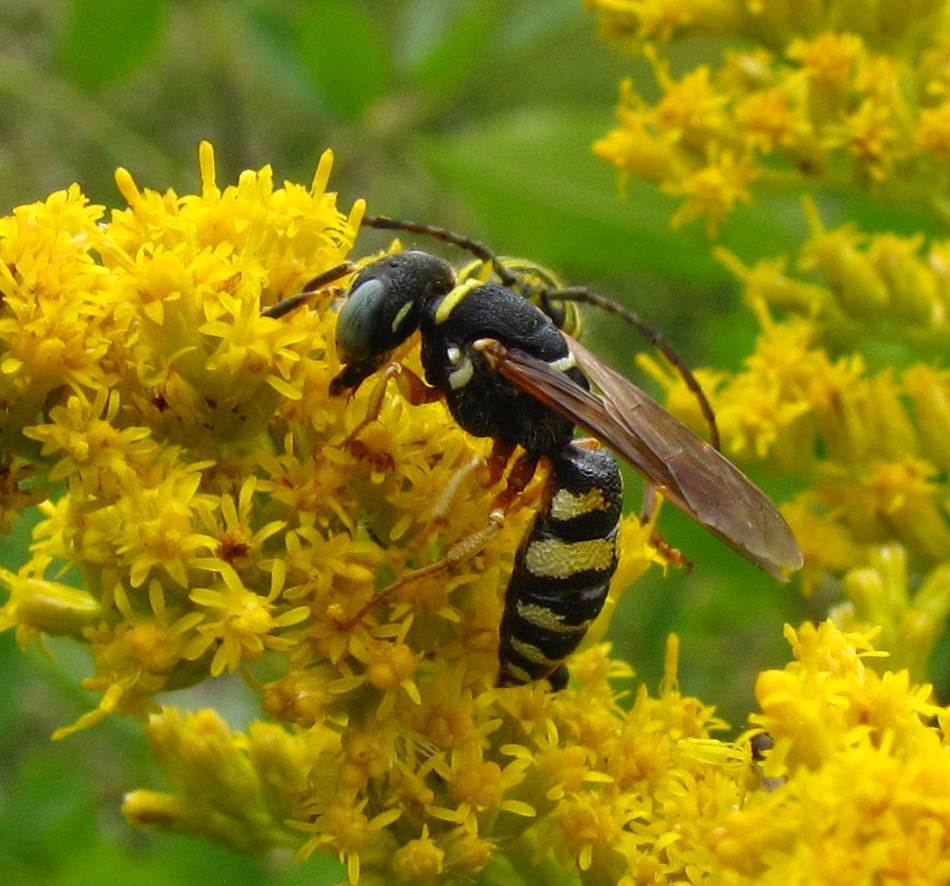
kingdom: Animalia
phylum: Arthropoda
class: Insecta
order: Hymenoptera
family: Crabronidae
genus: Philanthus
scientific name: Philanthus ventilabris
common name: Bee-killer wasp
